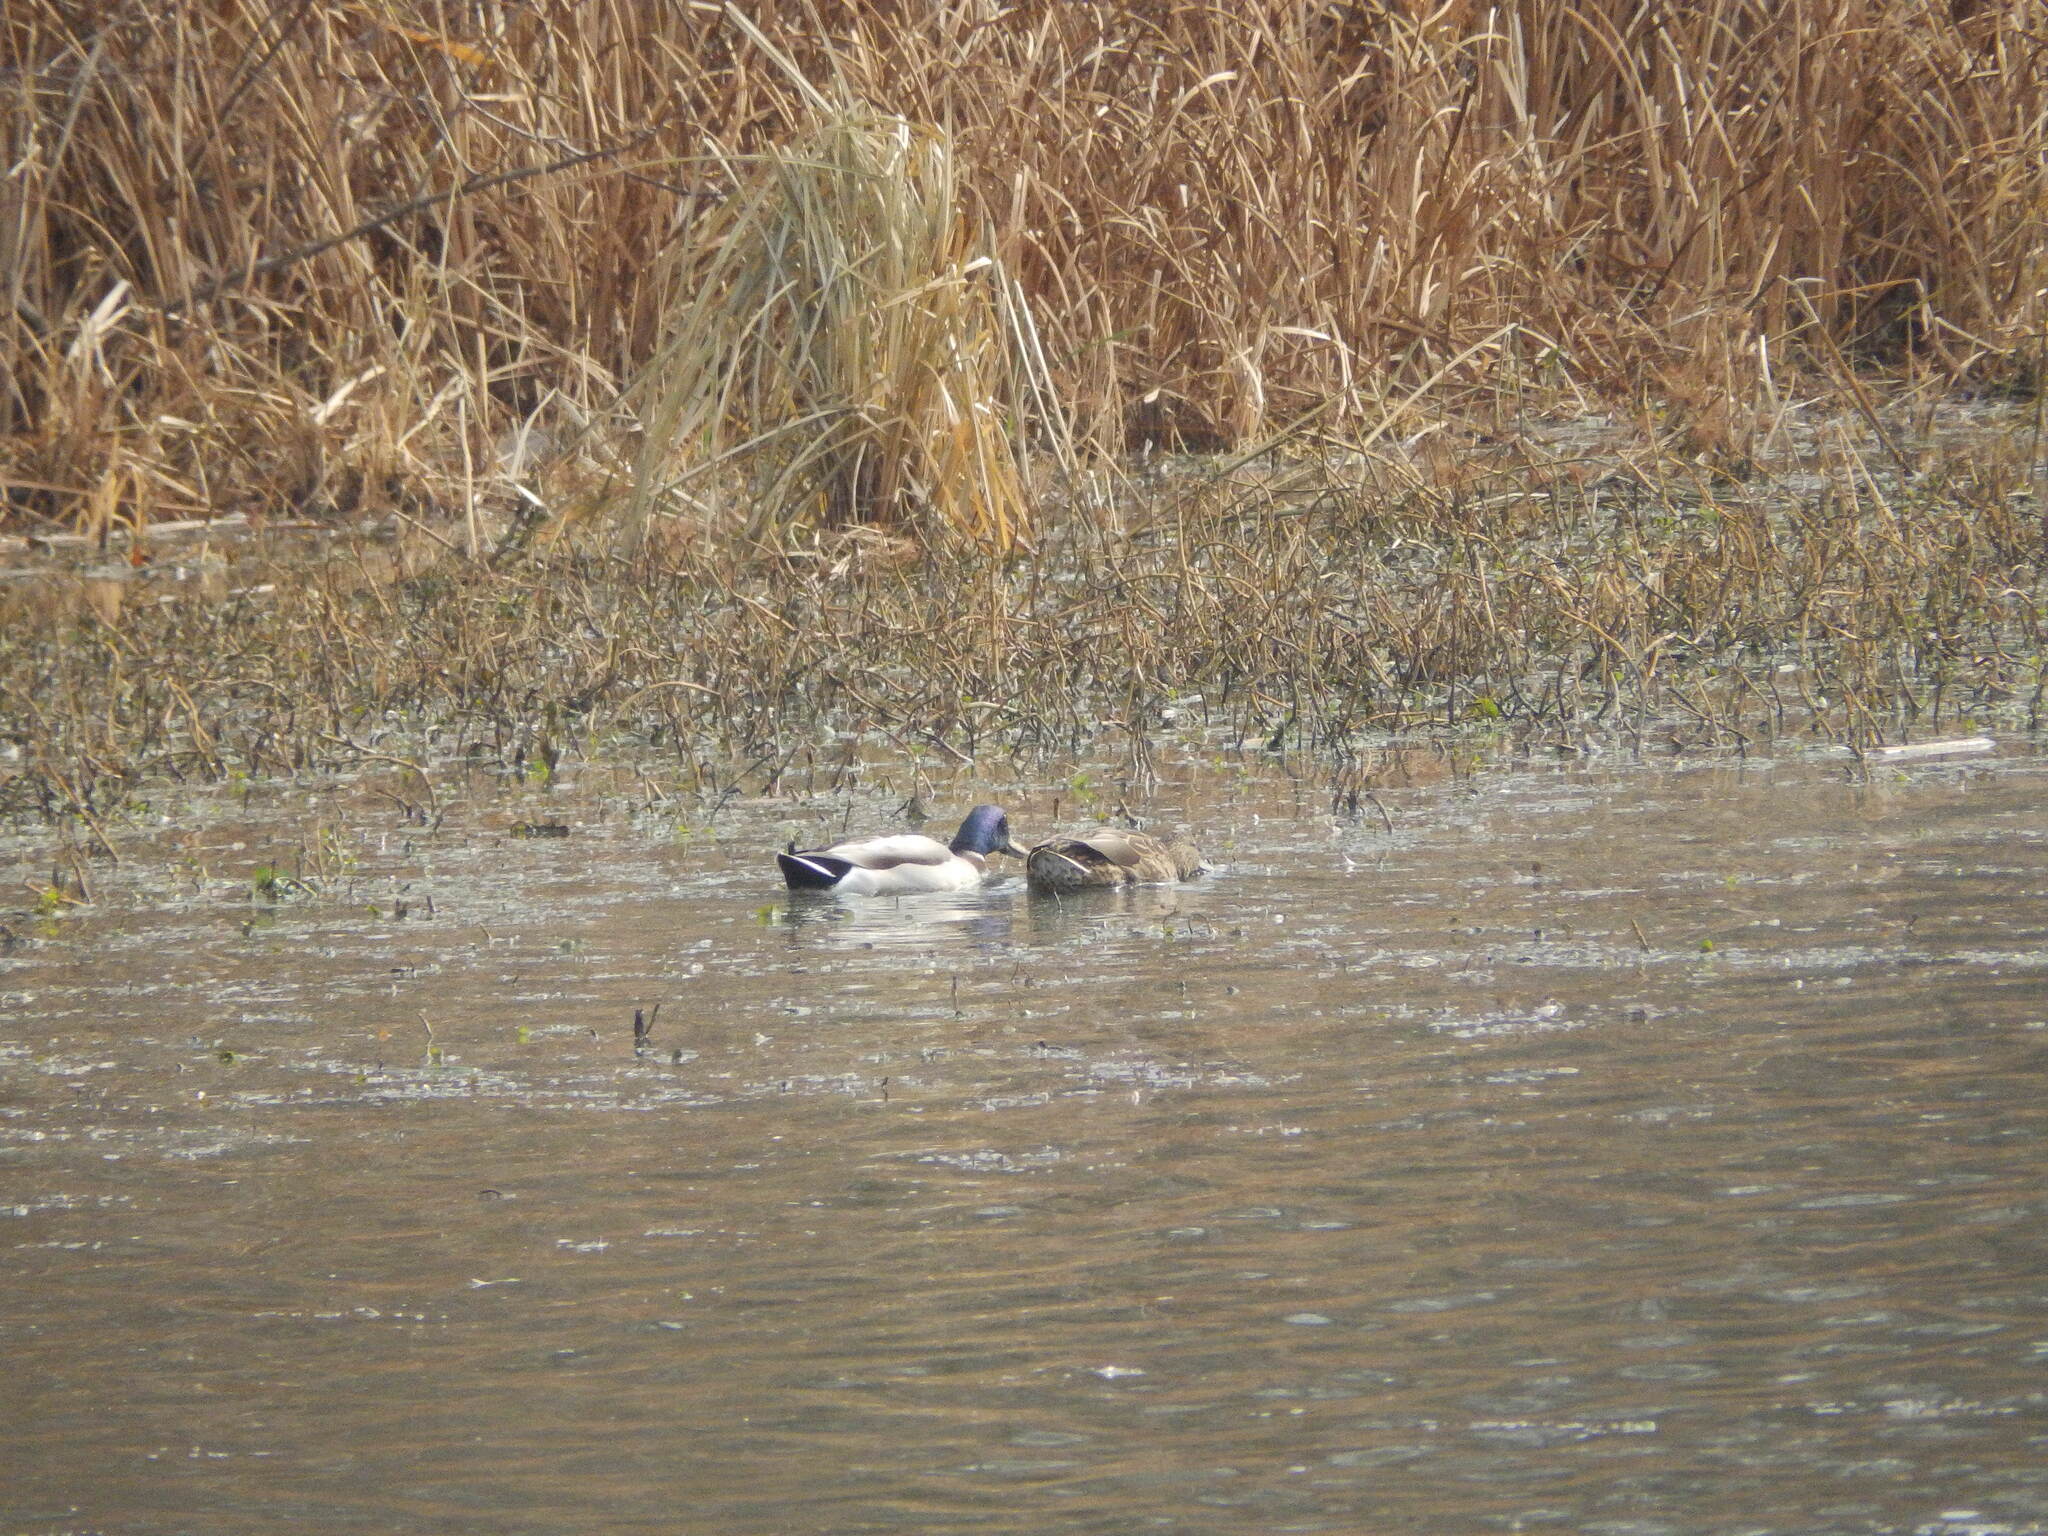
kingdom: Animalia
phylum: Chordata
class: Aves
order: Anseriformes
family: Anatidae
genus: Anas
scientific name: Anas platyrhynchos
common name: Mallard
